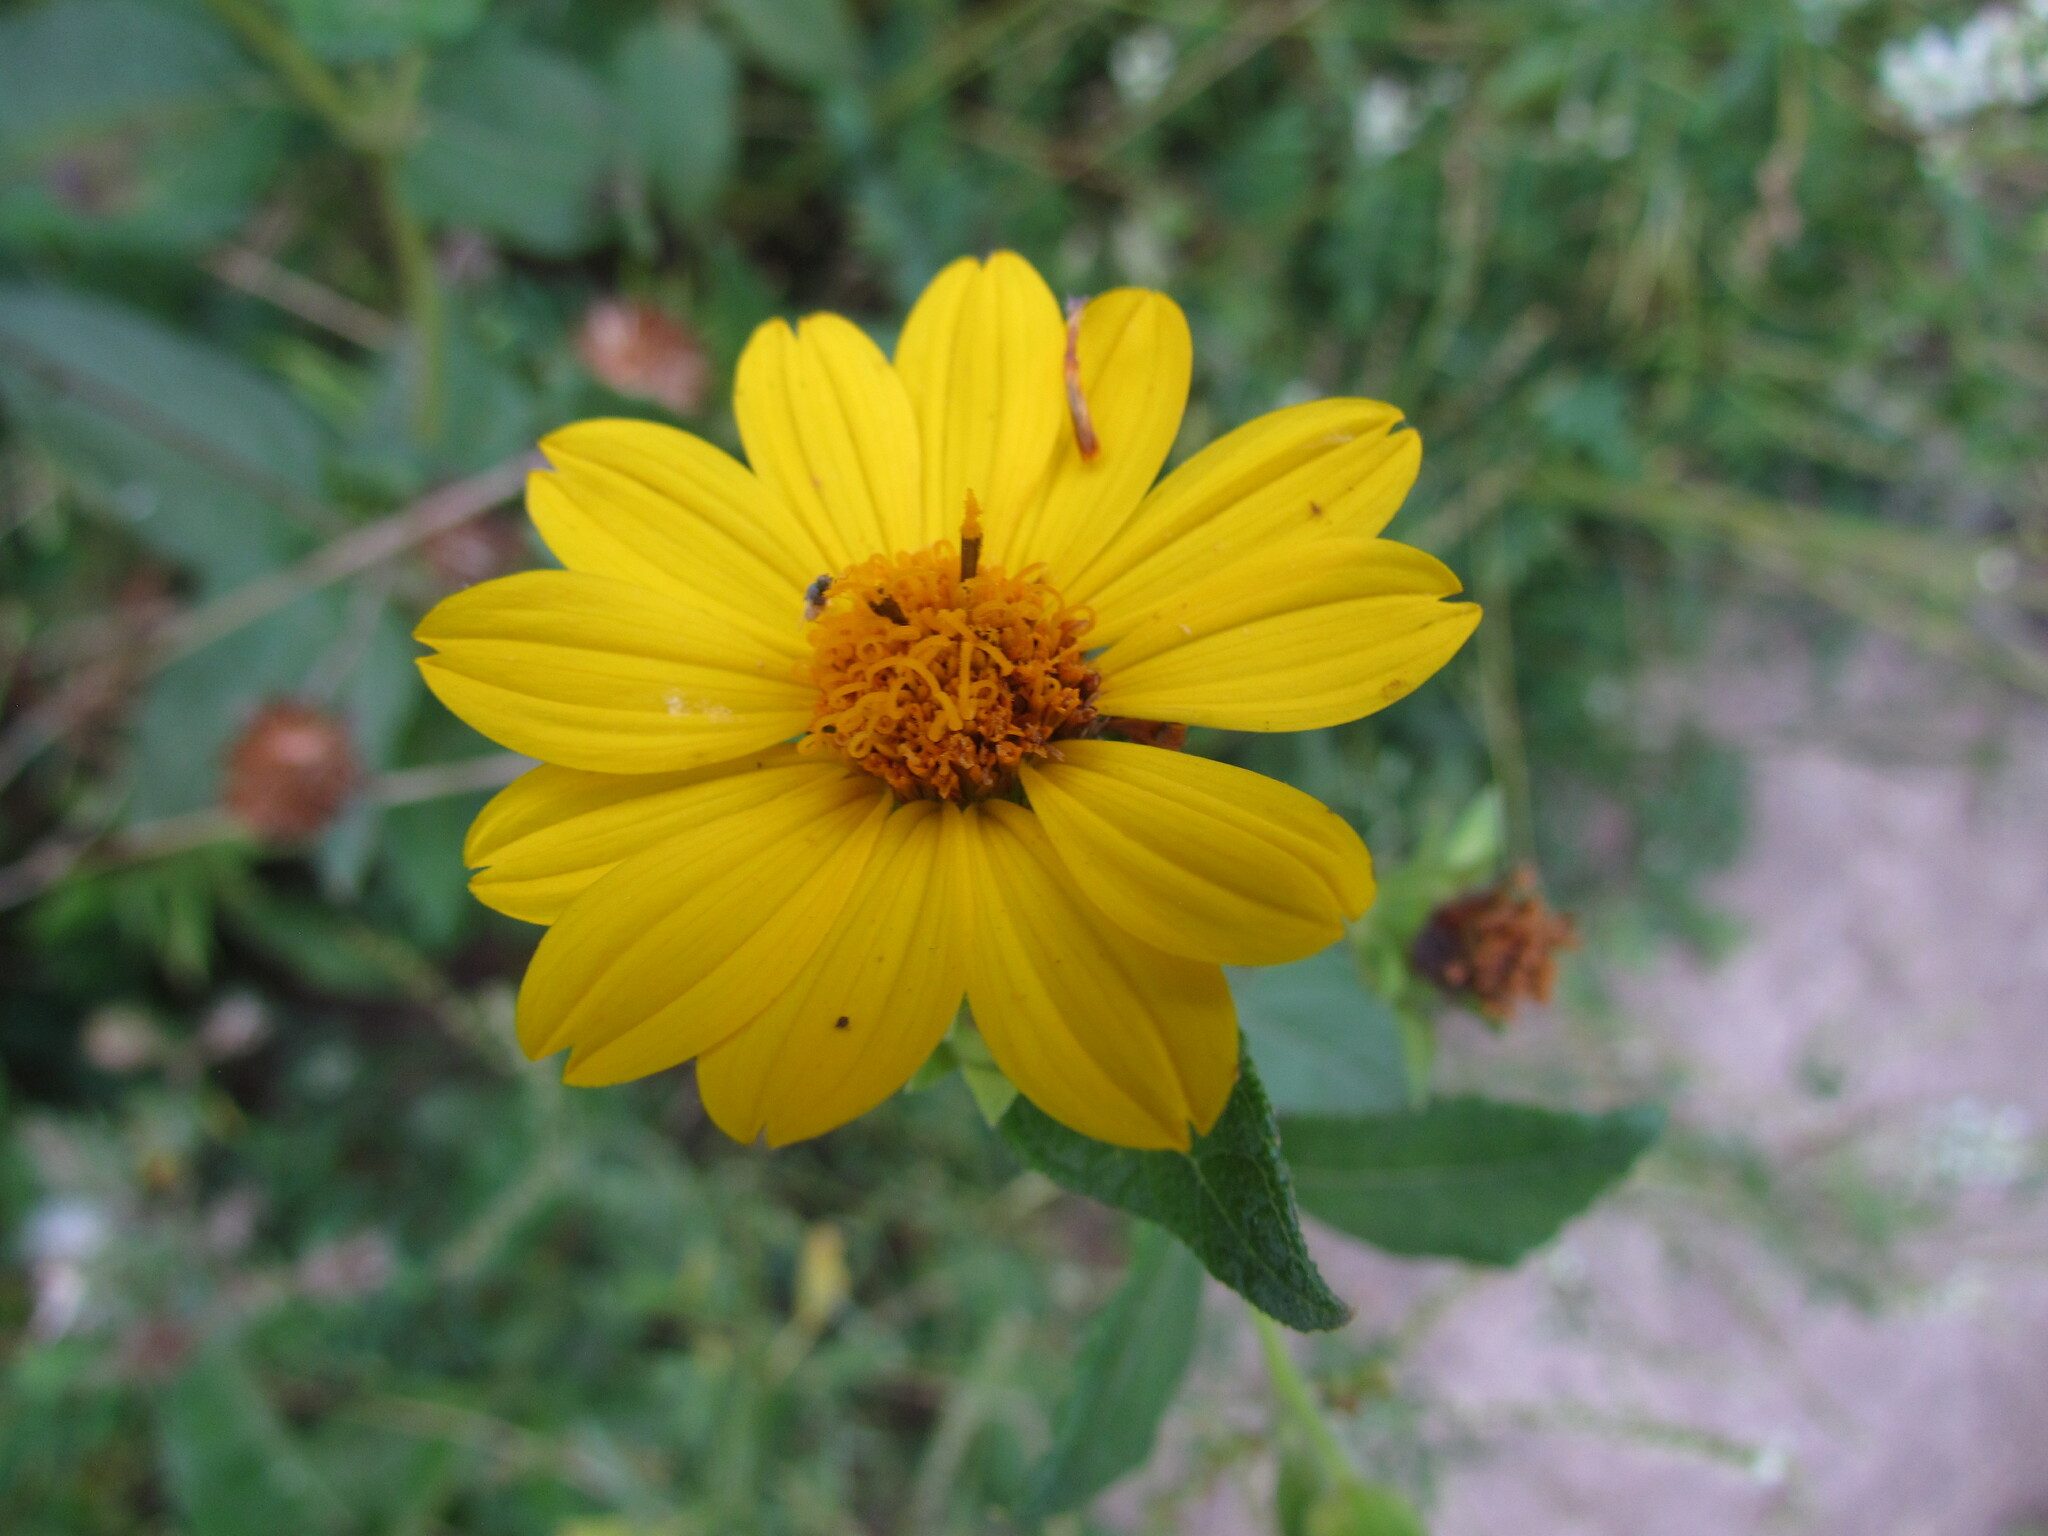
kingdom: Plantae
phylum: Tracheophyta
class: Magnoliopsida
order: Asterales
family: Asteraceae
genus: Wedelia
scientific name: Wedelia silphioides
